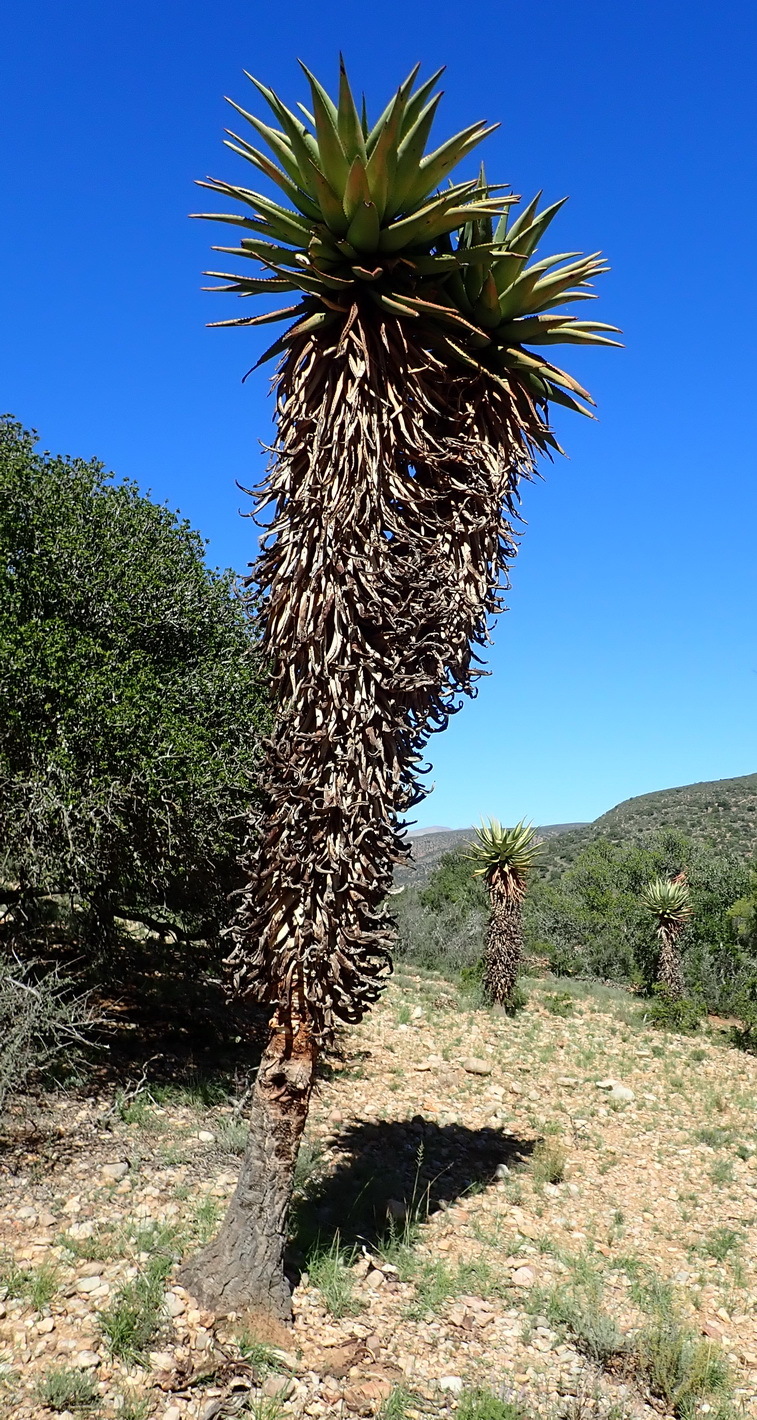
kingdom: Plantae
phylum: Tracheophyta
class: Liliopsida
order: Asparagales
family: Asphodelaceae
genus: Aloe
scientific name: Aloe ferox
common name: Bitter aloe
